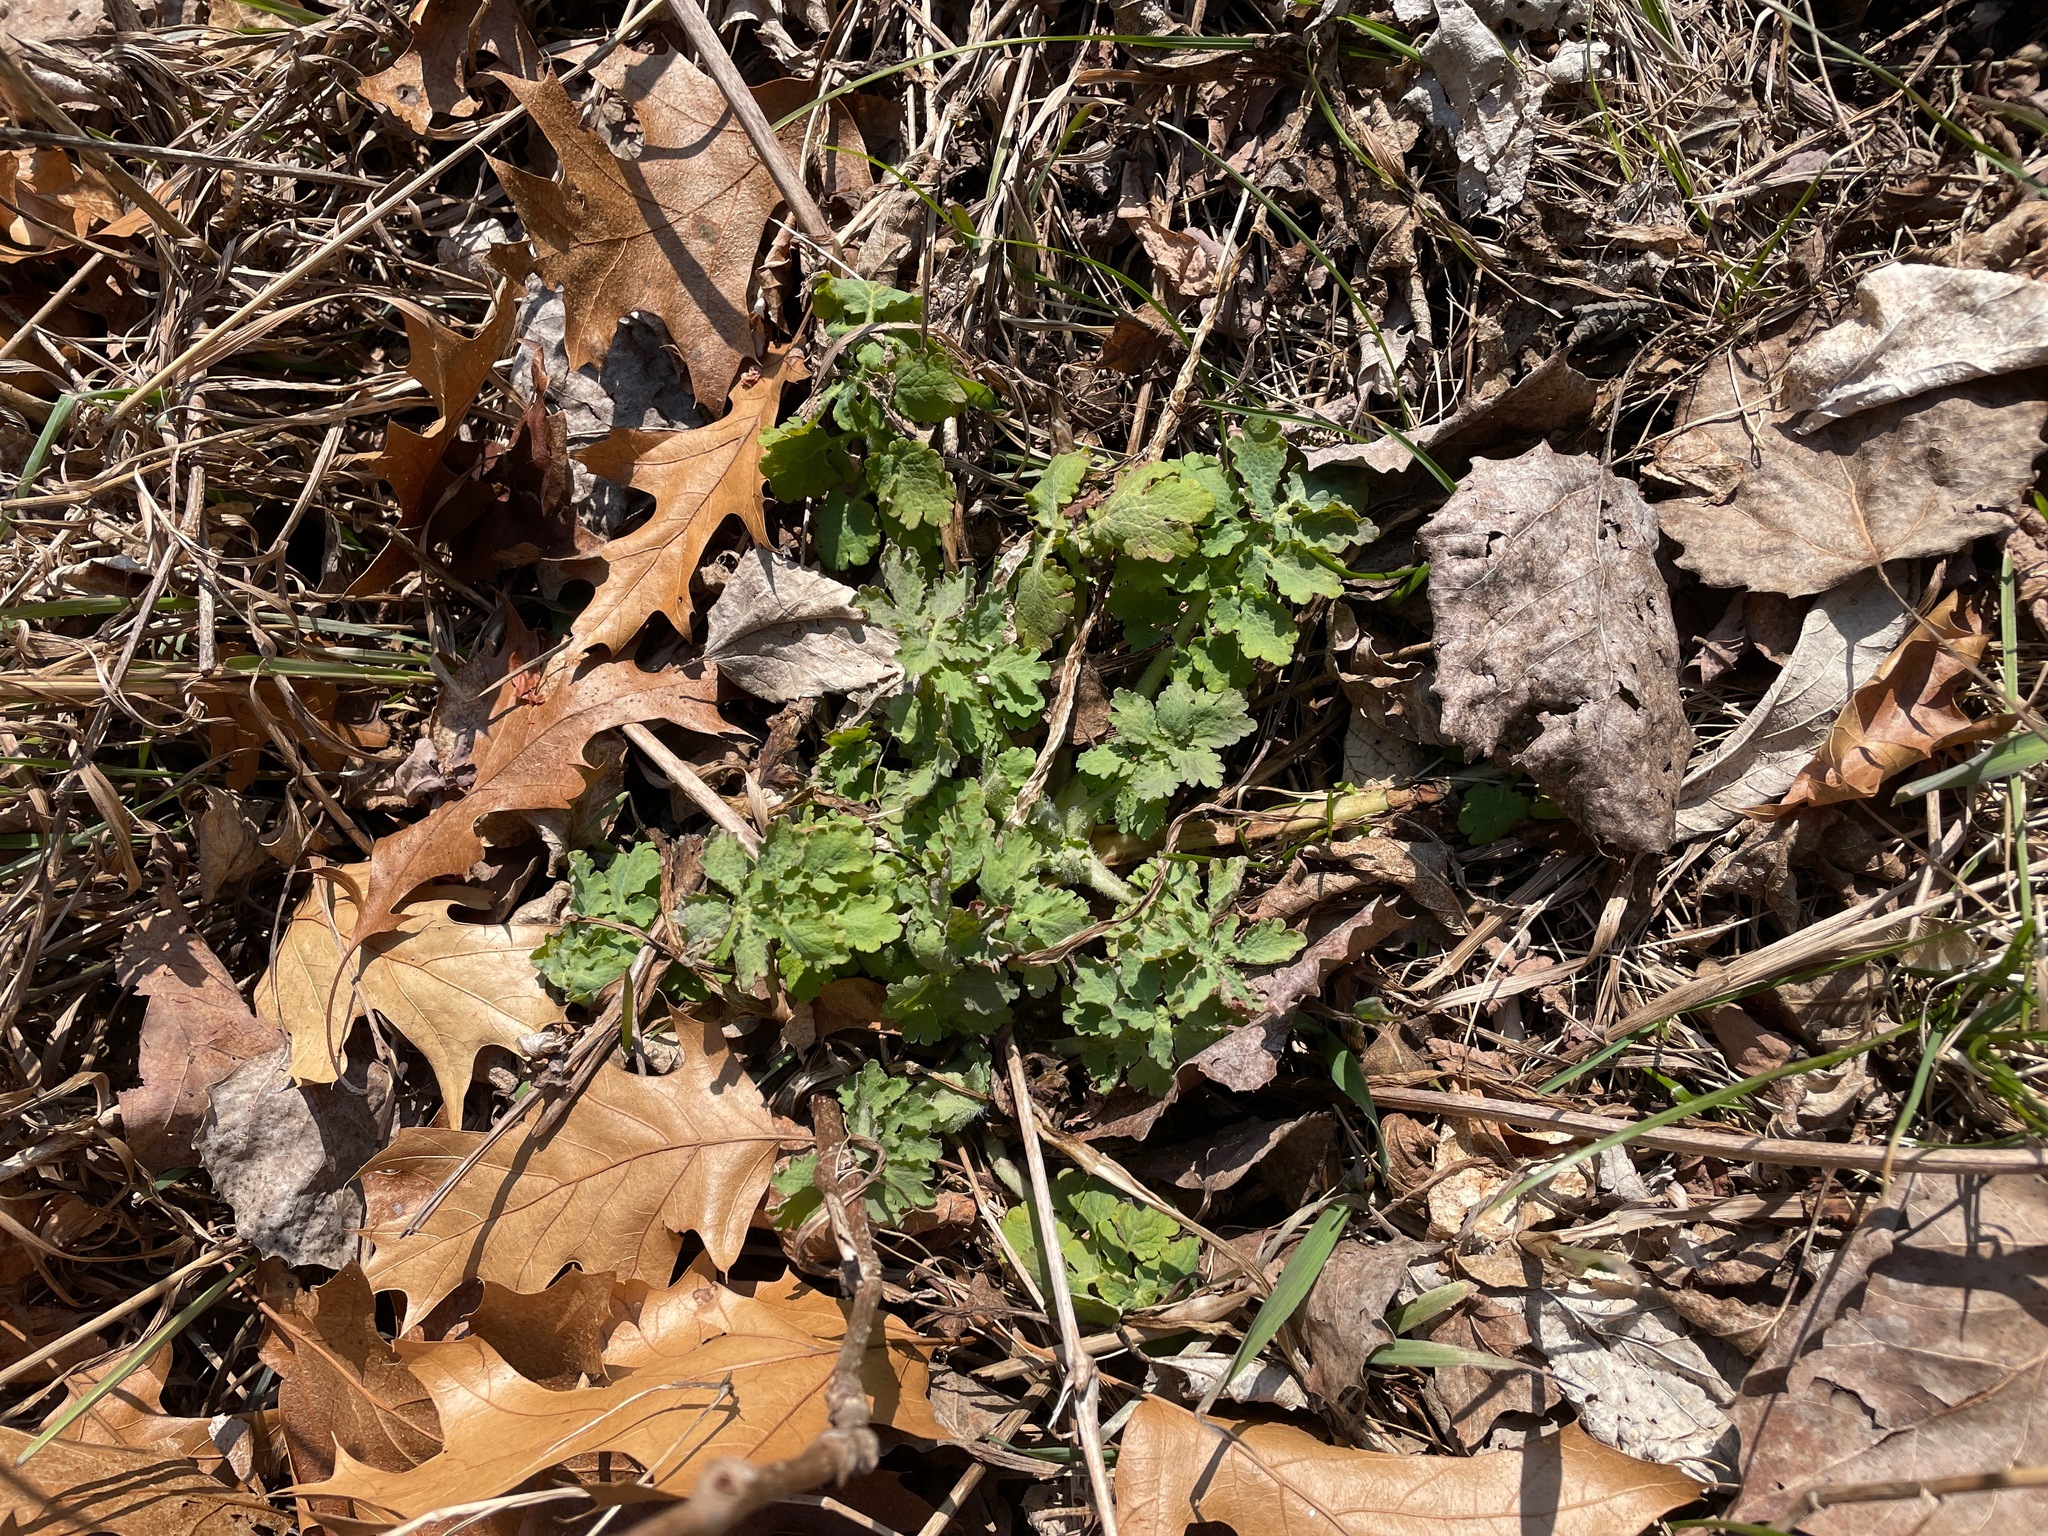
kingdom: Plantae
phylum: Tracheophyta
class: Magnoliopsida
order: Ranunculales
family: Papaveraceae
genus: Chelidonium
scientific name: Chelidonium majus
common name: Greater celandine
